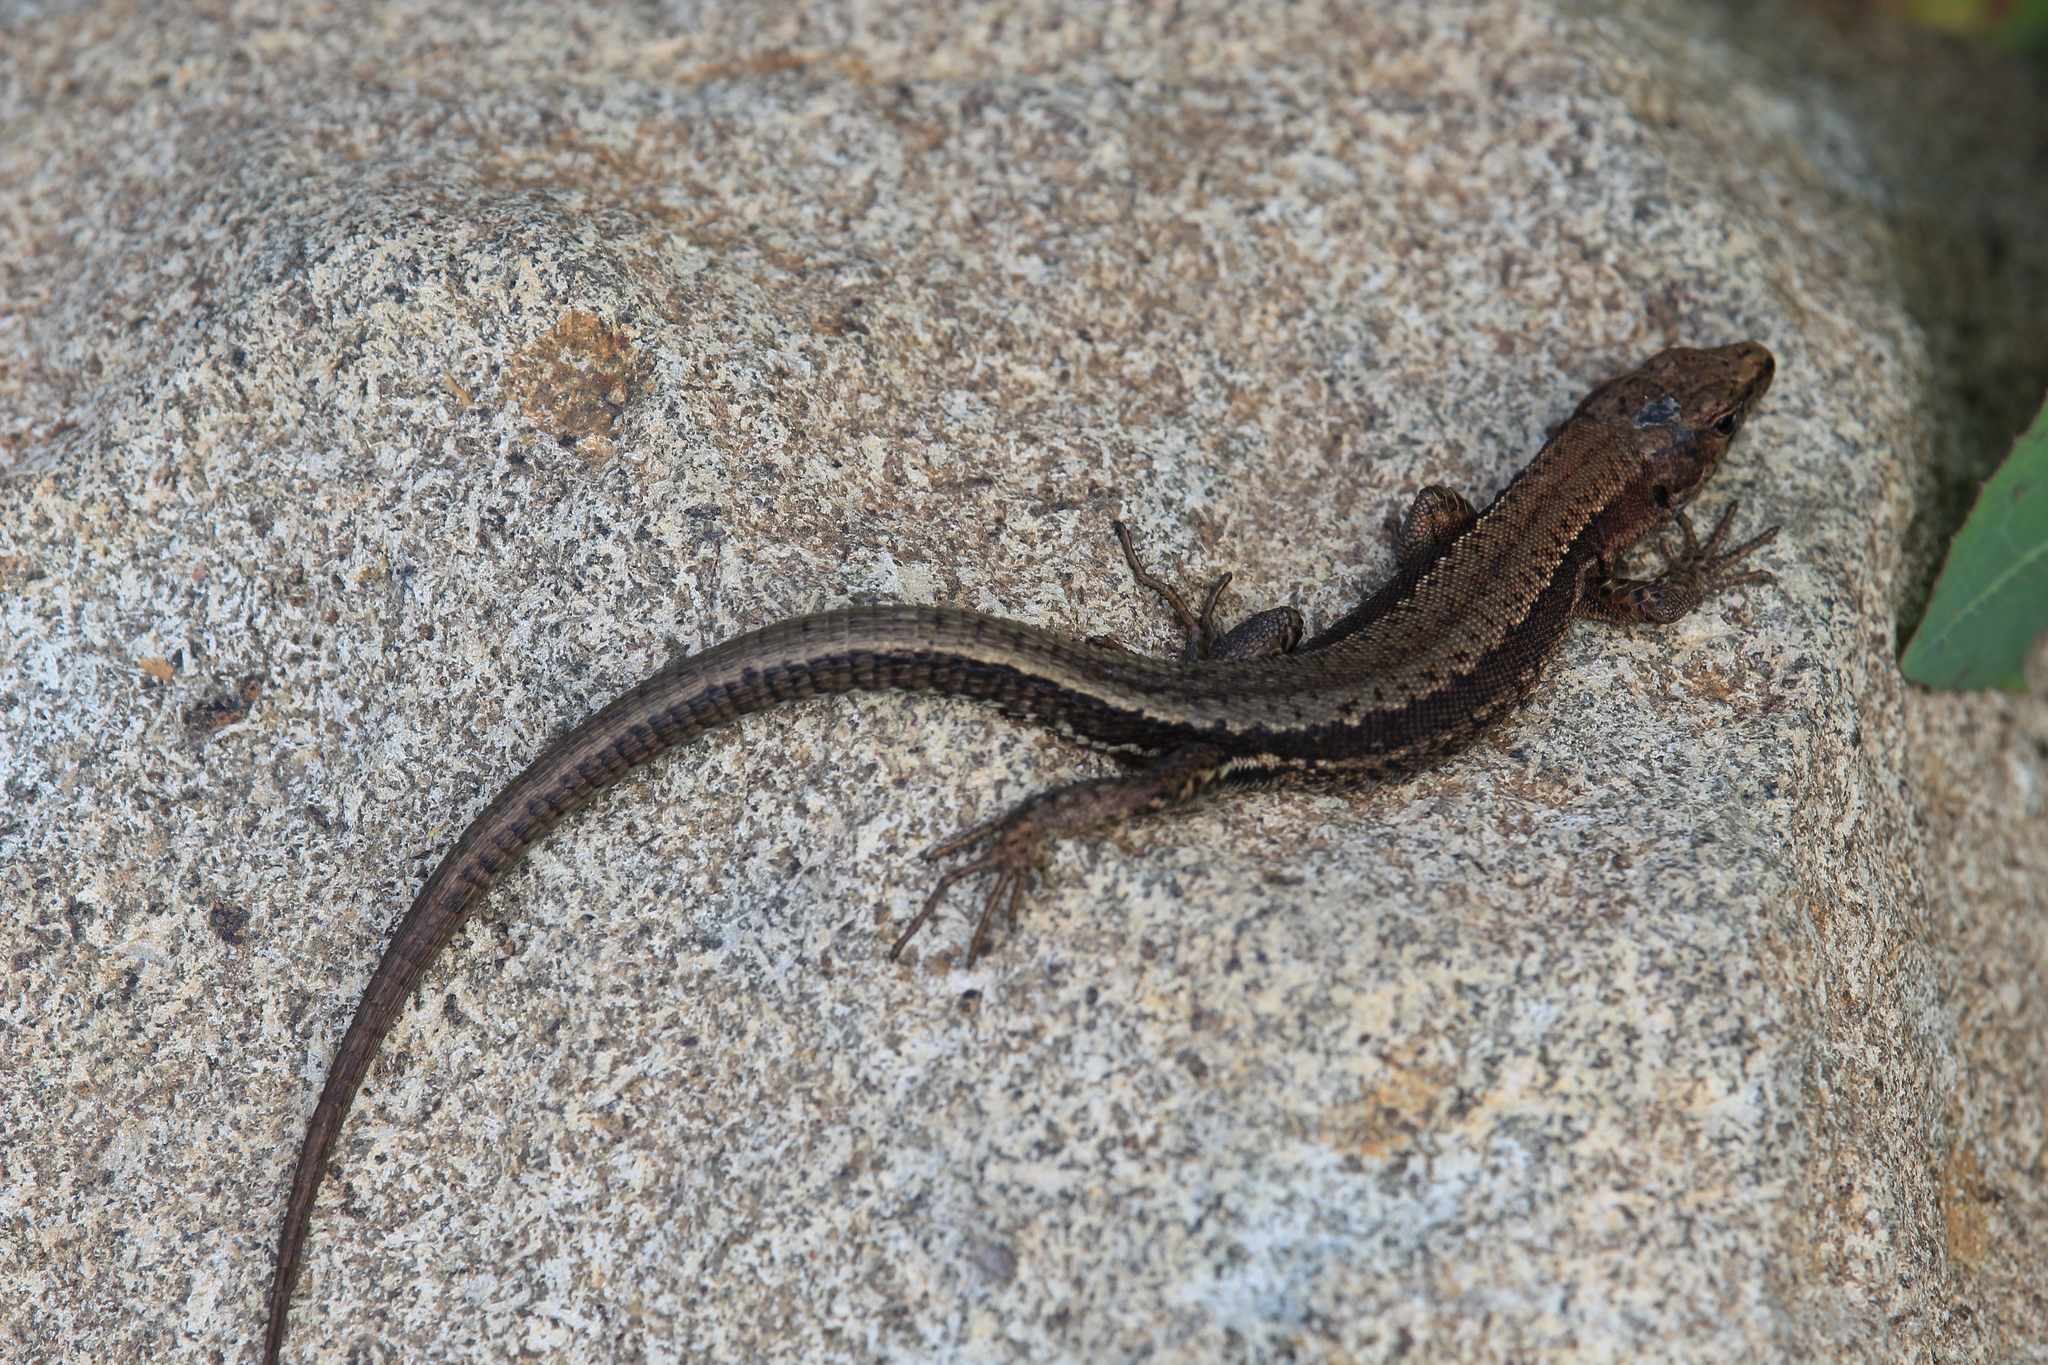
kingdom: Animalia
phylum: Chordata
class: Squamata
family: Lacertidae
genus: Darevskia
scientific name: Darevskia derjugini
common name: Derjugin's lizard
